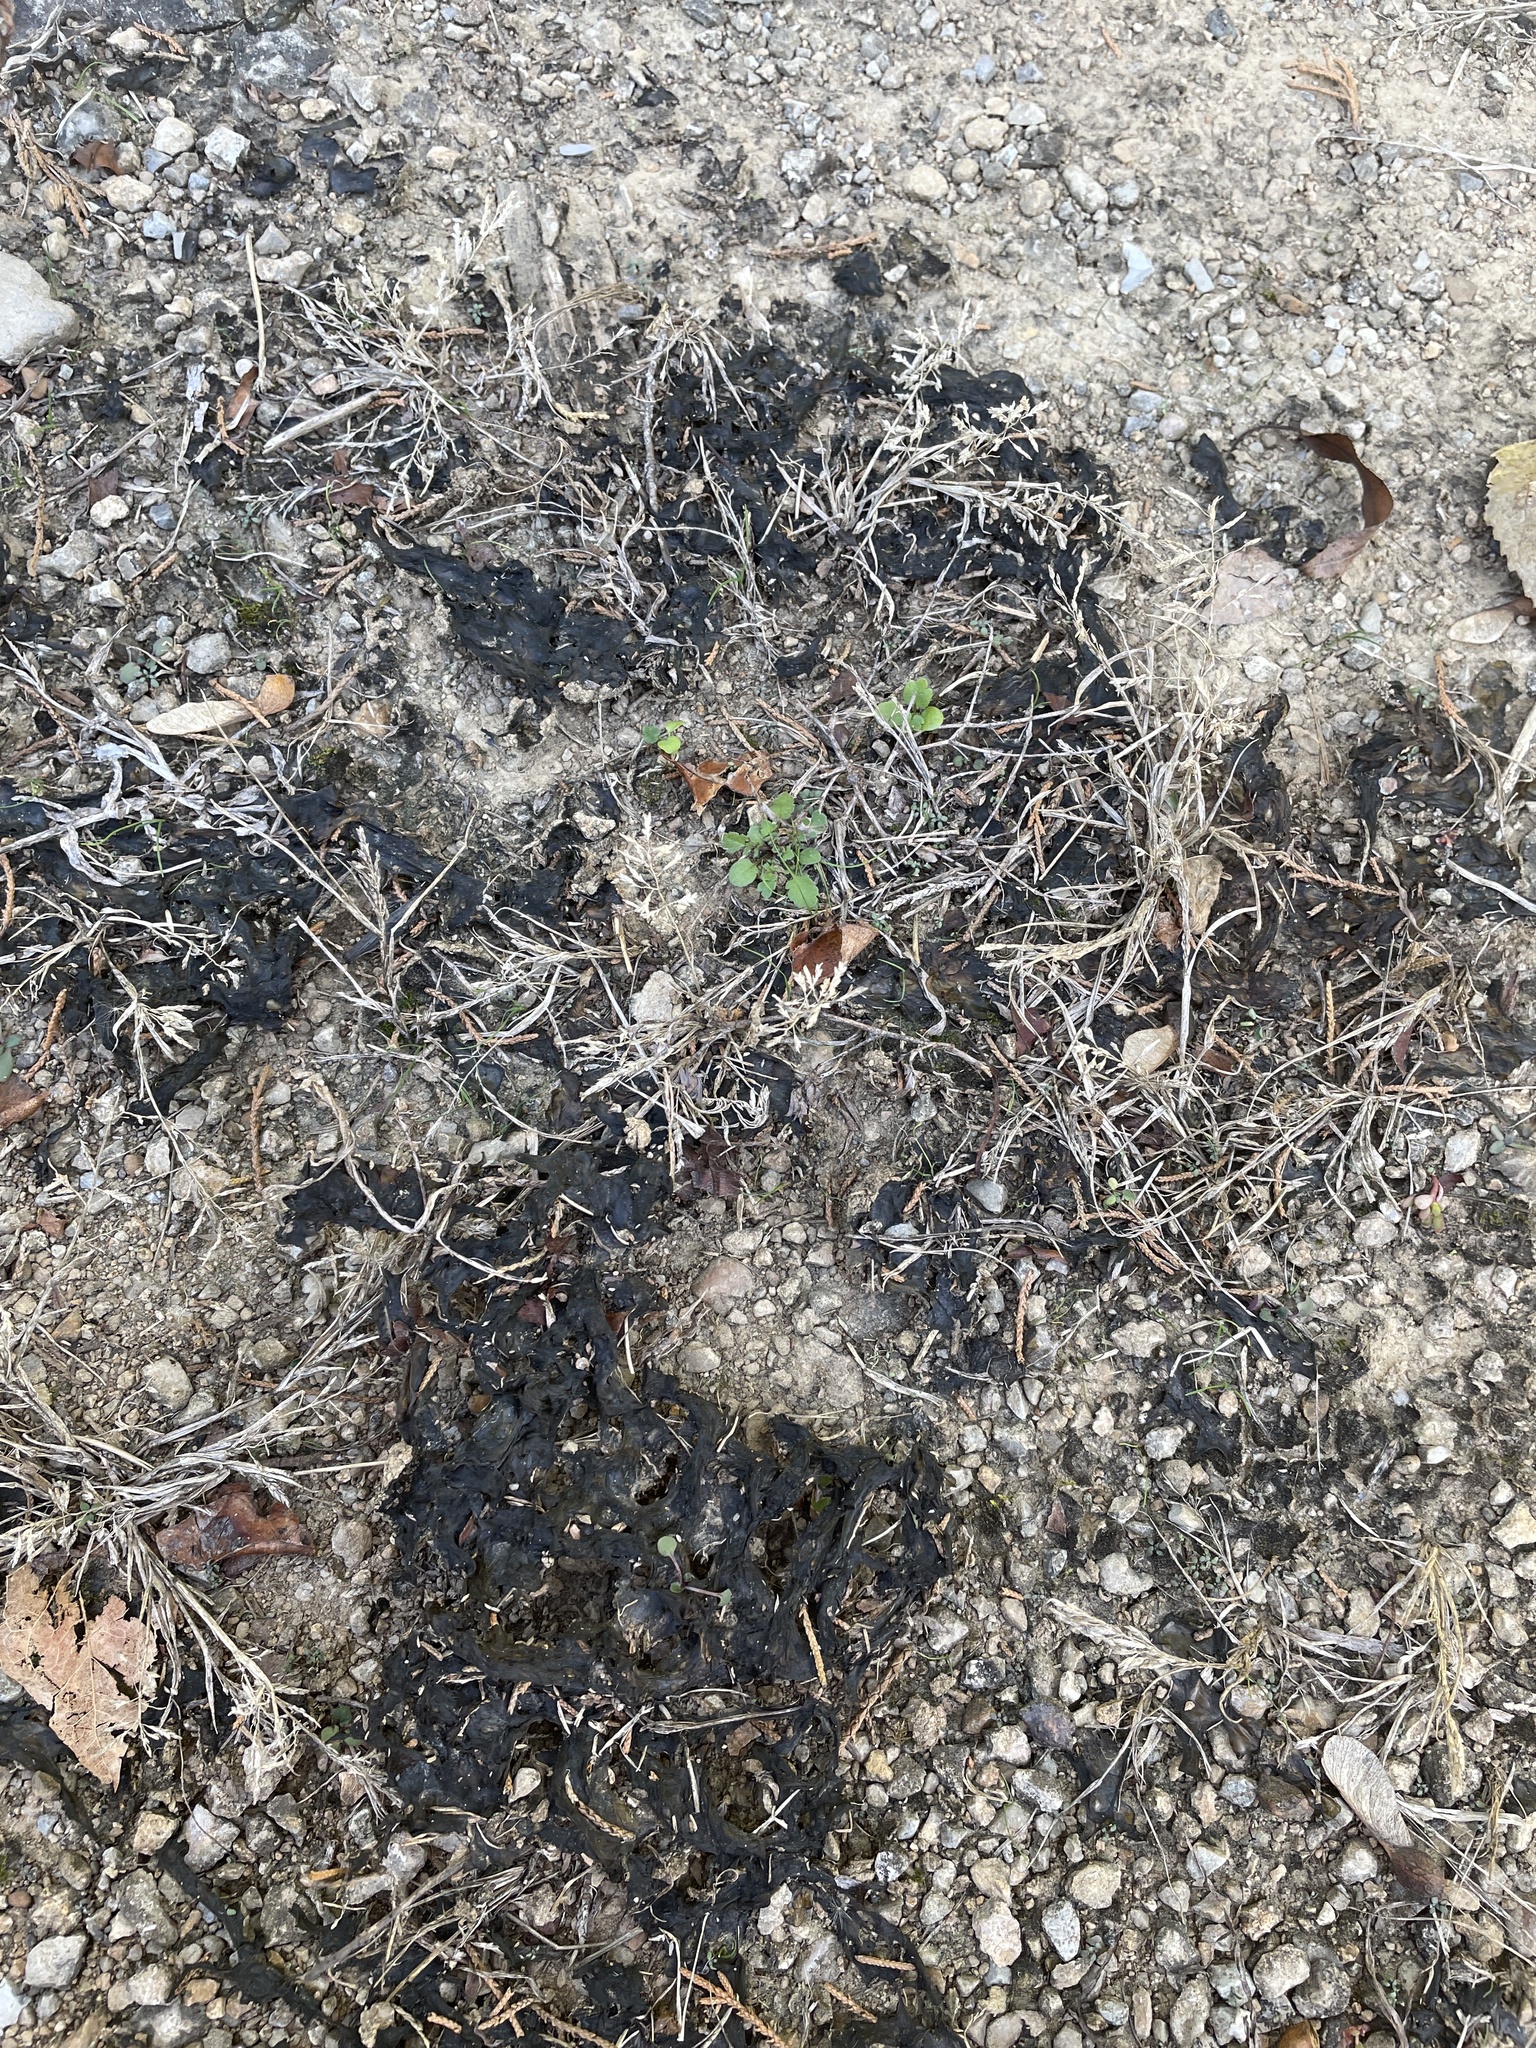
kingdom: Bacteria
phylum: Cyanobacteria
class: Cyanobacteriia
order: Cyanobacteriales
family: Nostocaceae
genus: Nostoc
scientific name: Nostoc commune
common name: Star jelly
